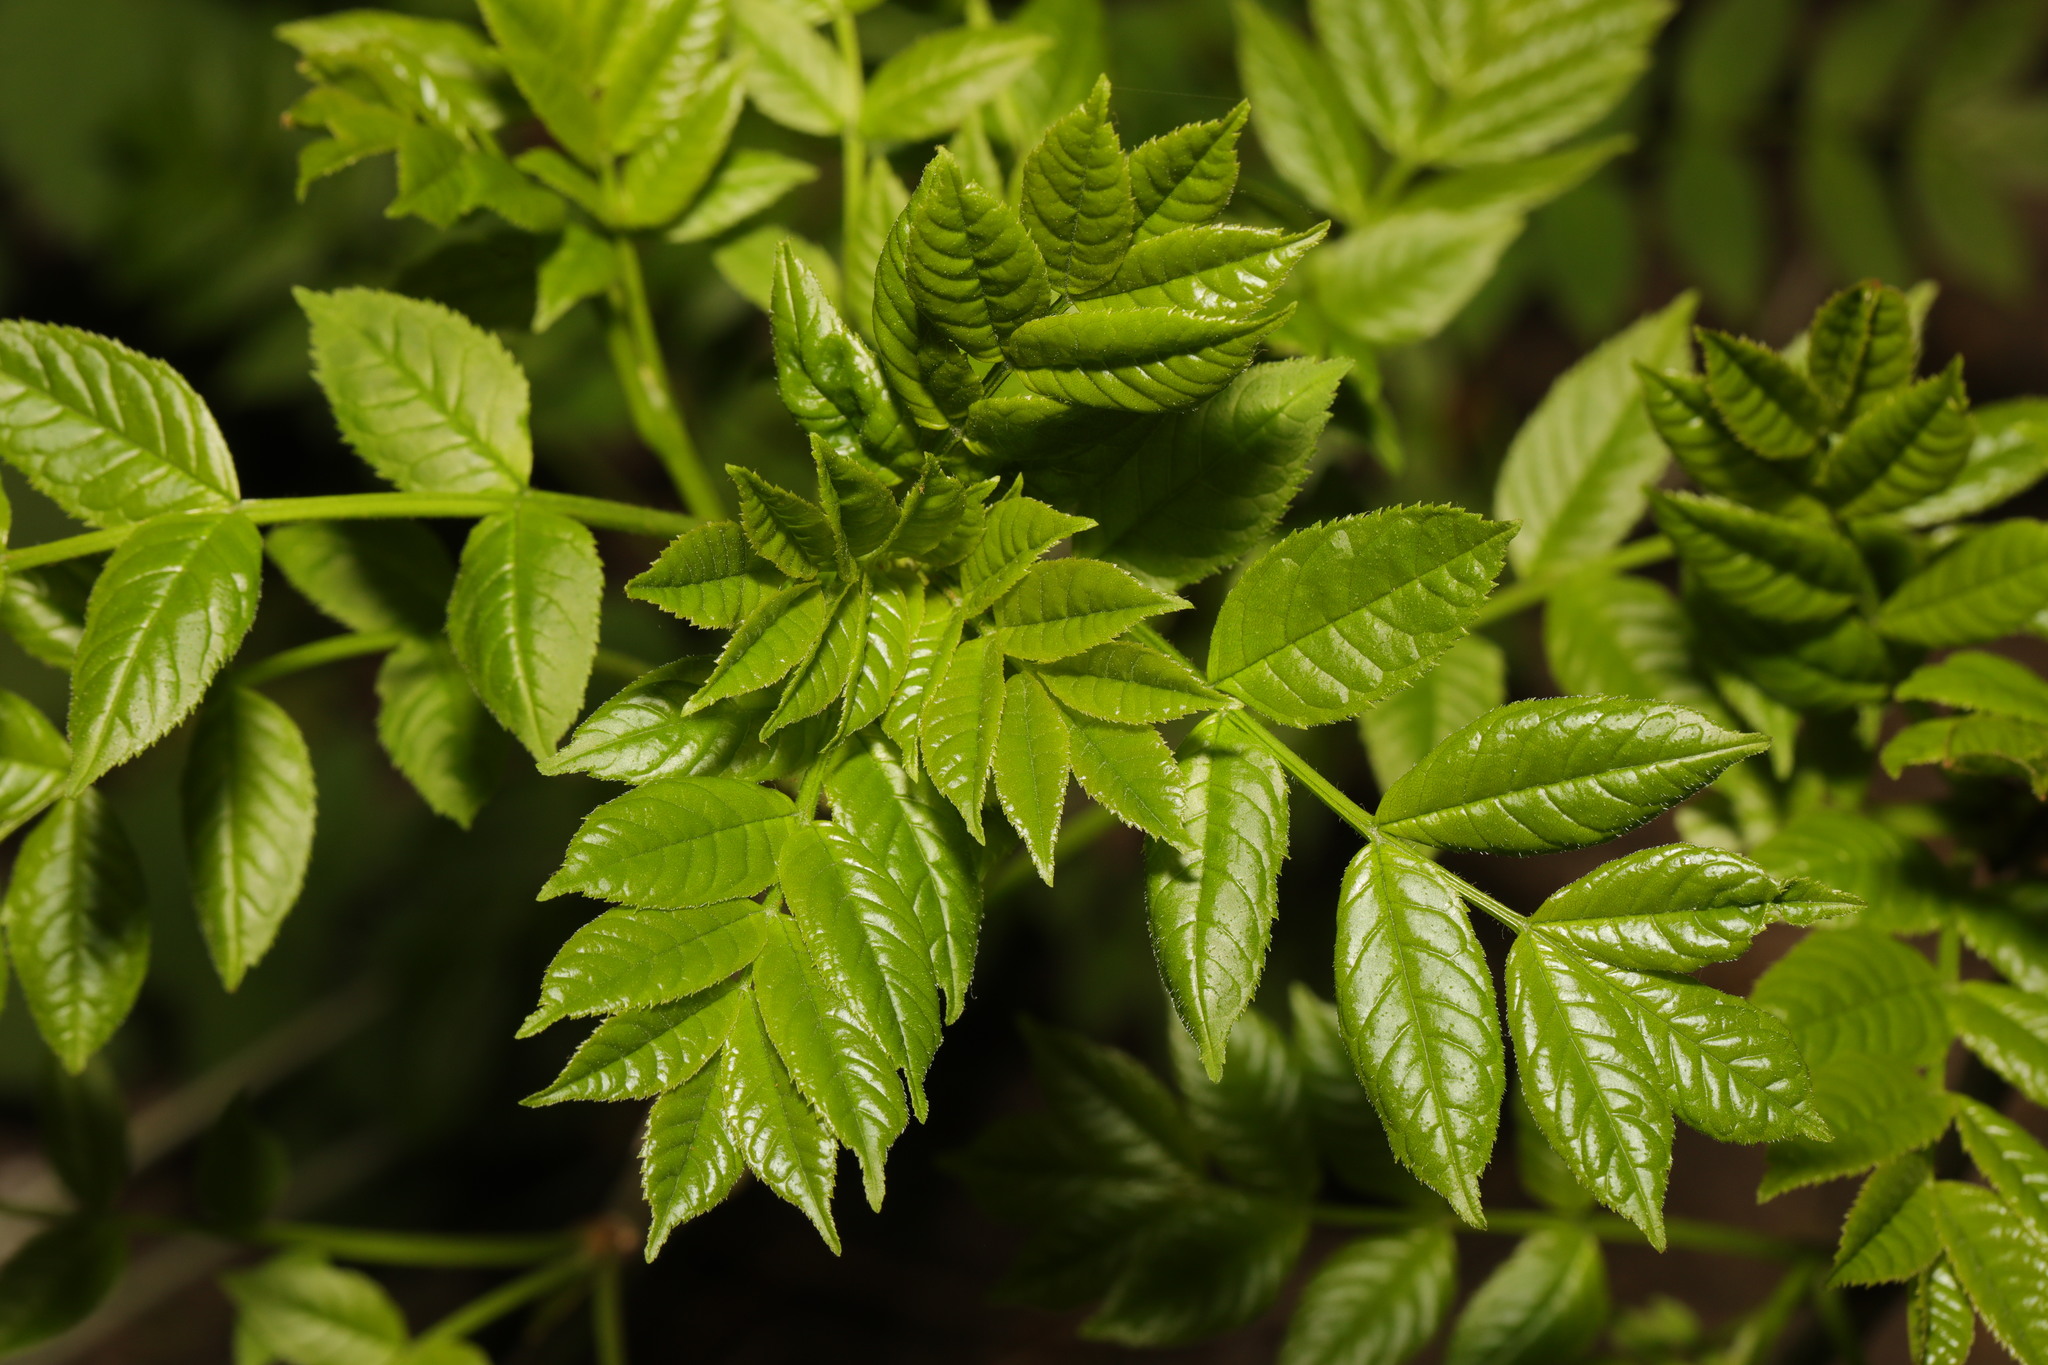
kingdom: Plantae
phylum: Tracheophyta
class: Magnoliopsida
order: Lamiales
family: Oleaceae
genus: Fraxinus
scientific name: Fraxinus excelsior
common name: European ash
